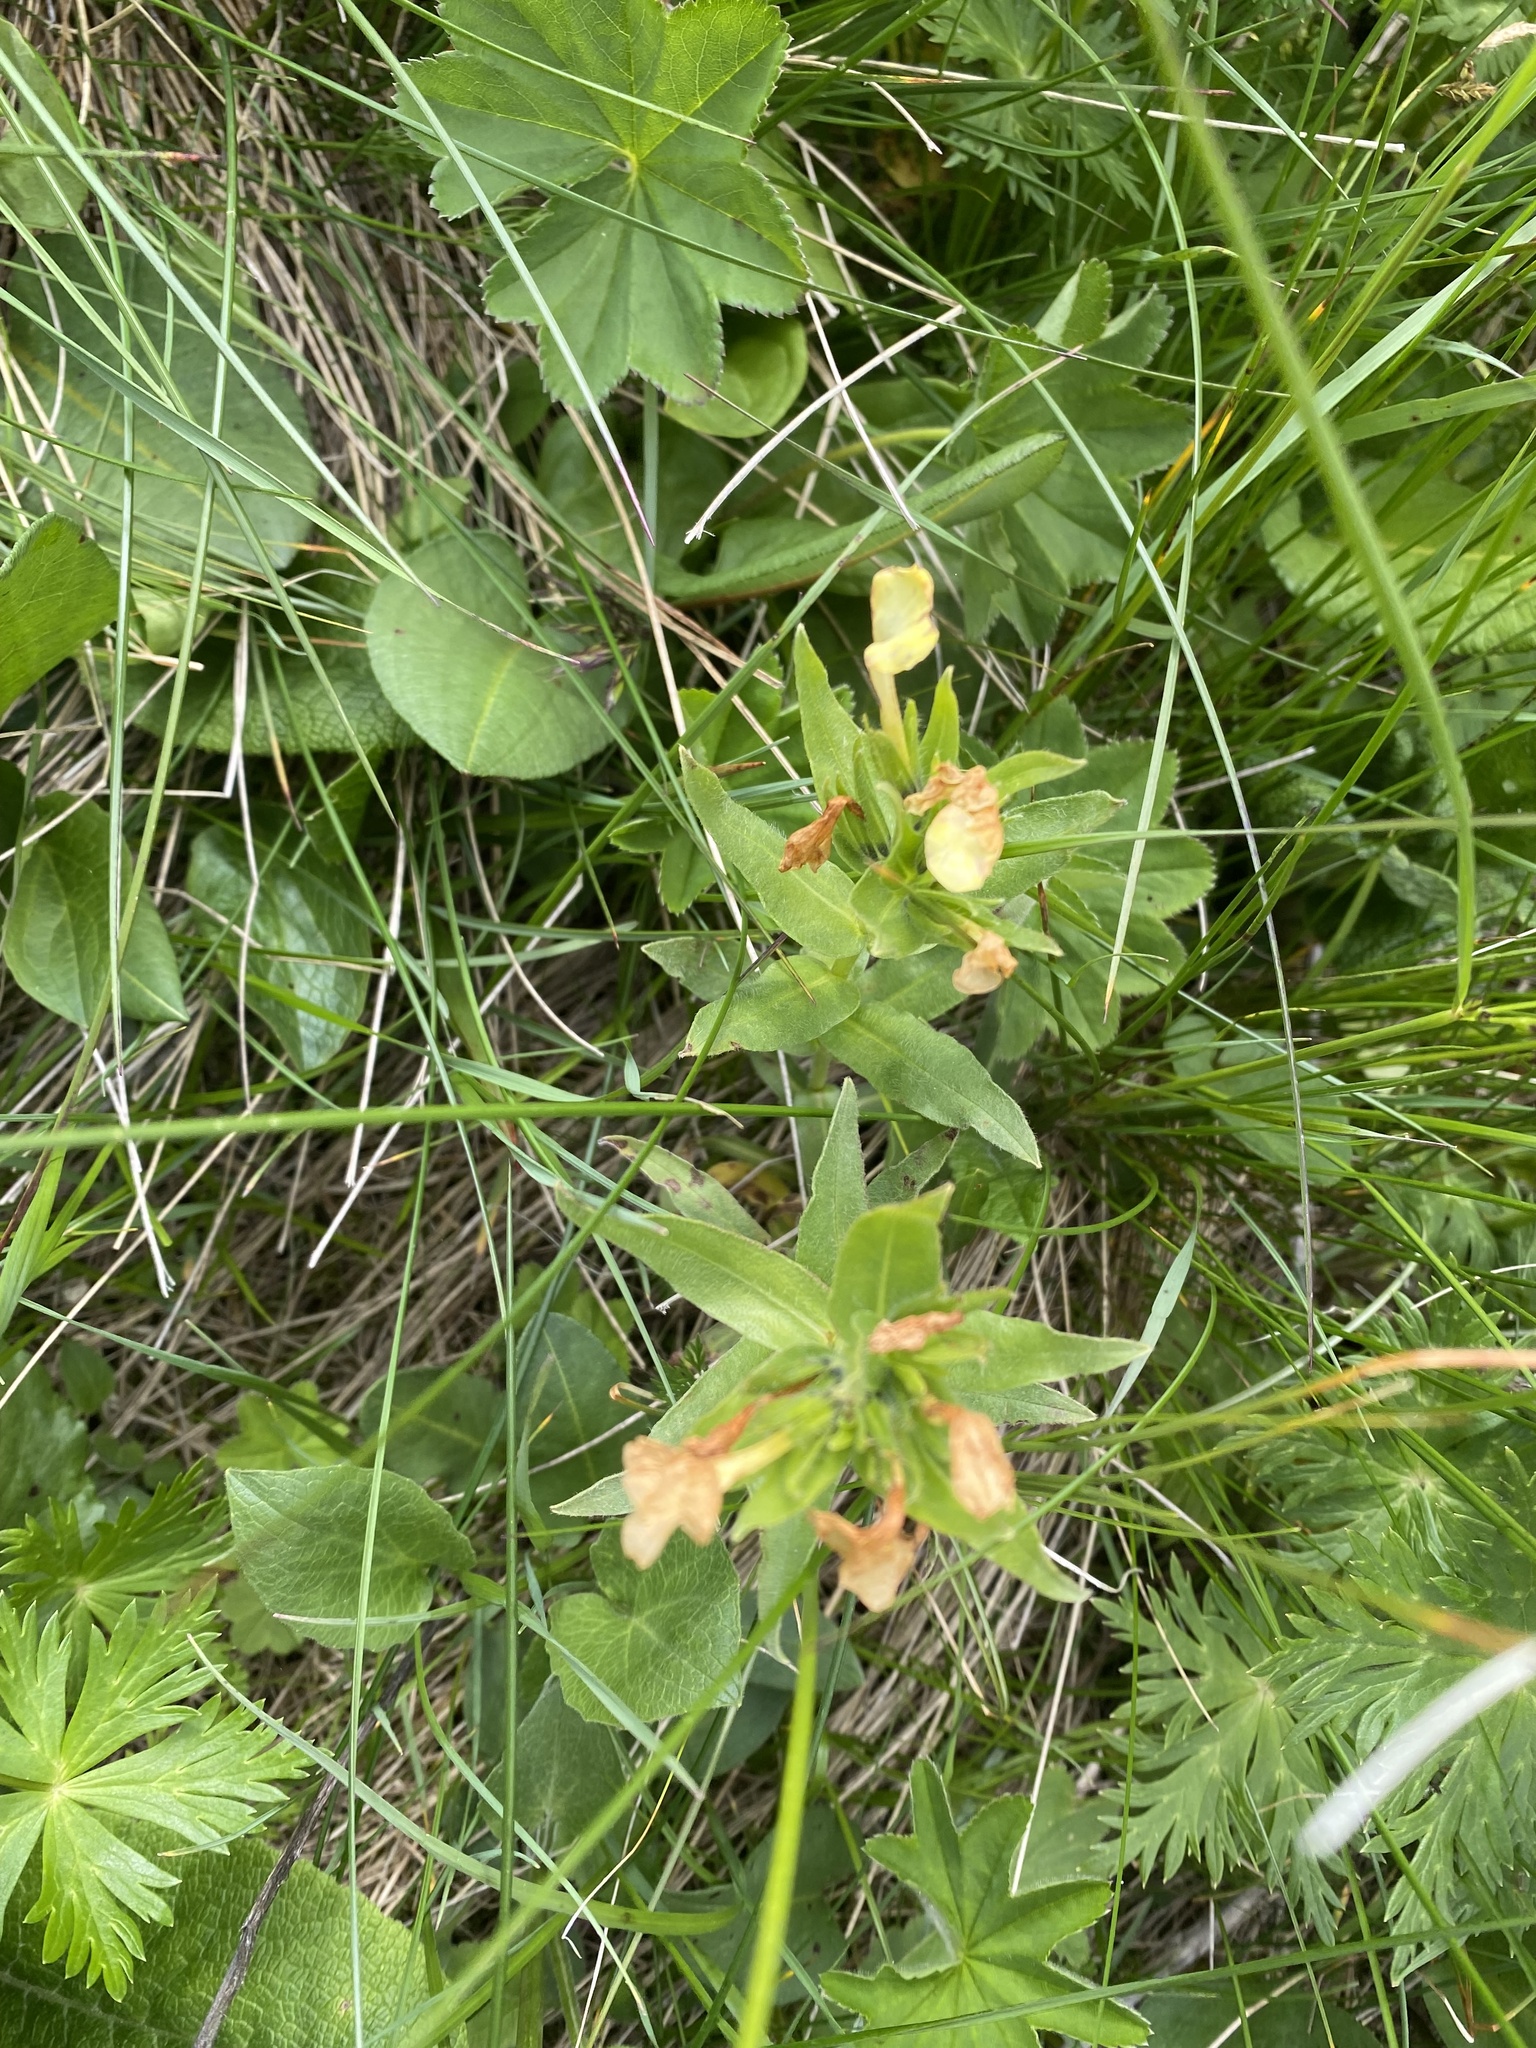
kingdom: Plantae
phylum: Tracheophyta
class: Magnoliopsida
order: Boraginales
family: Boraginaceae
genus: Huynhia
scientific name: Huynhia pulchra
